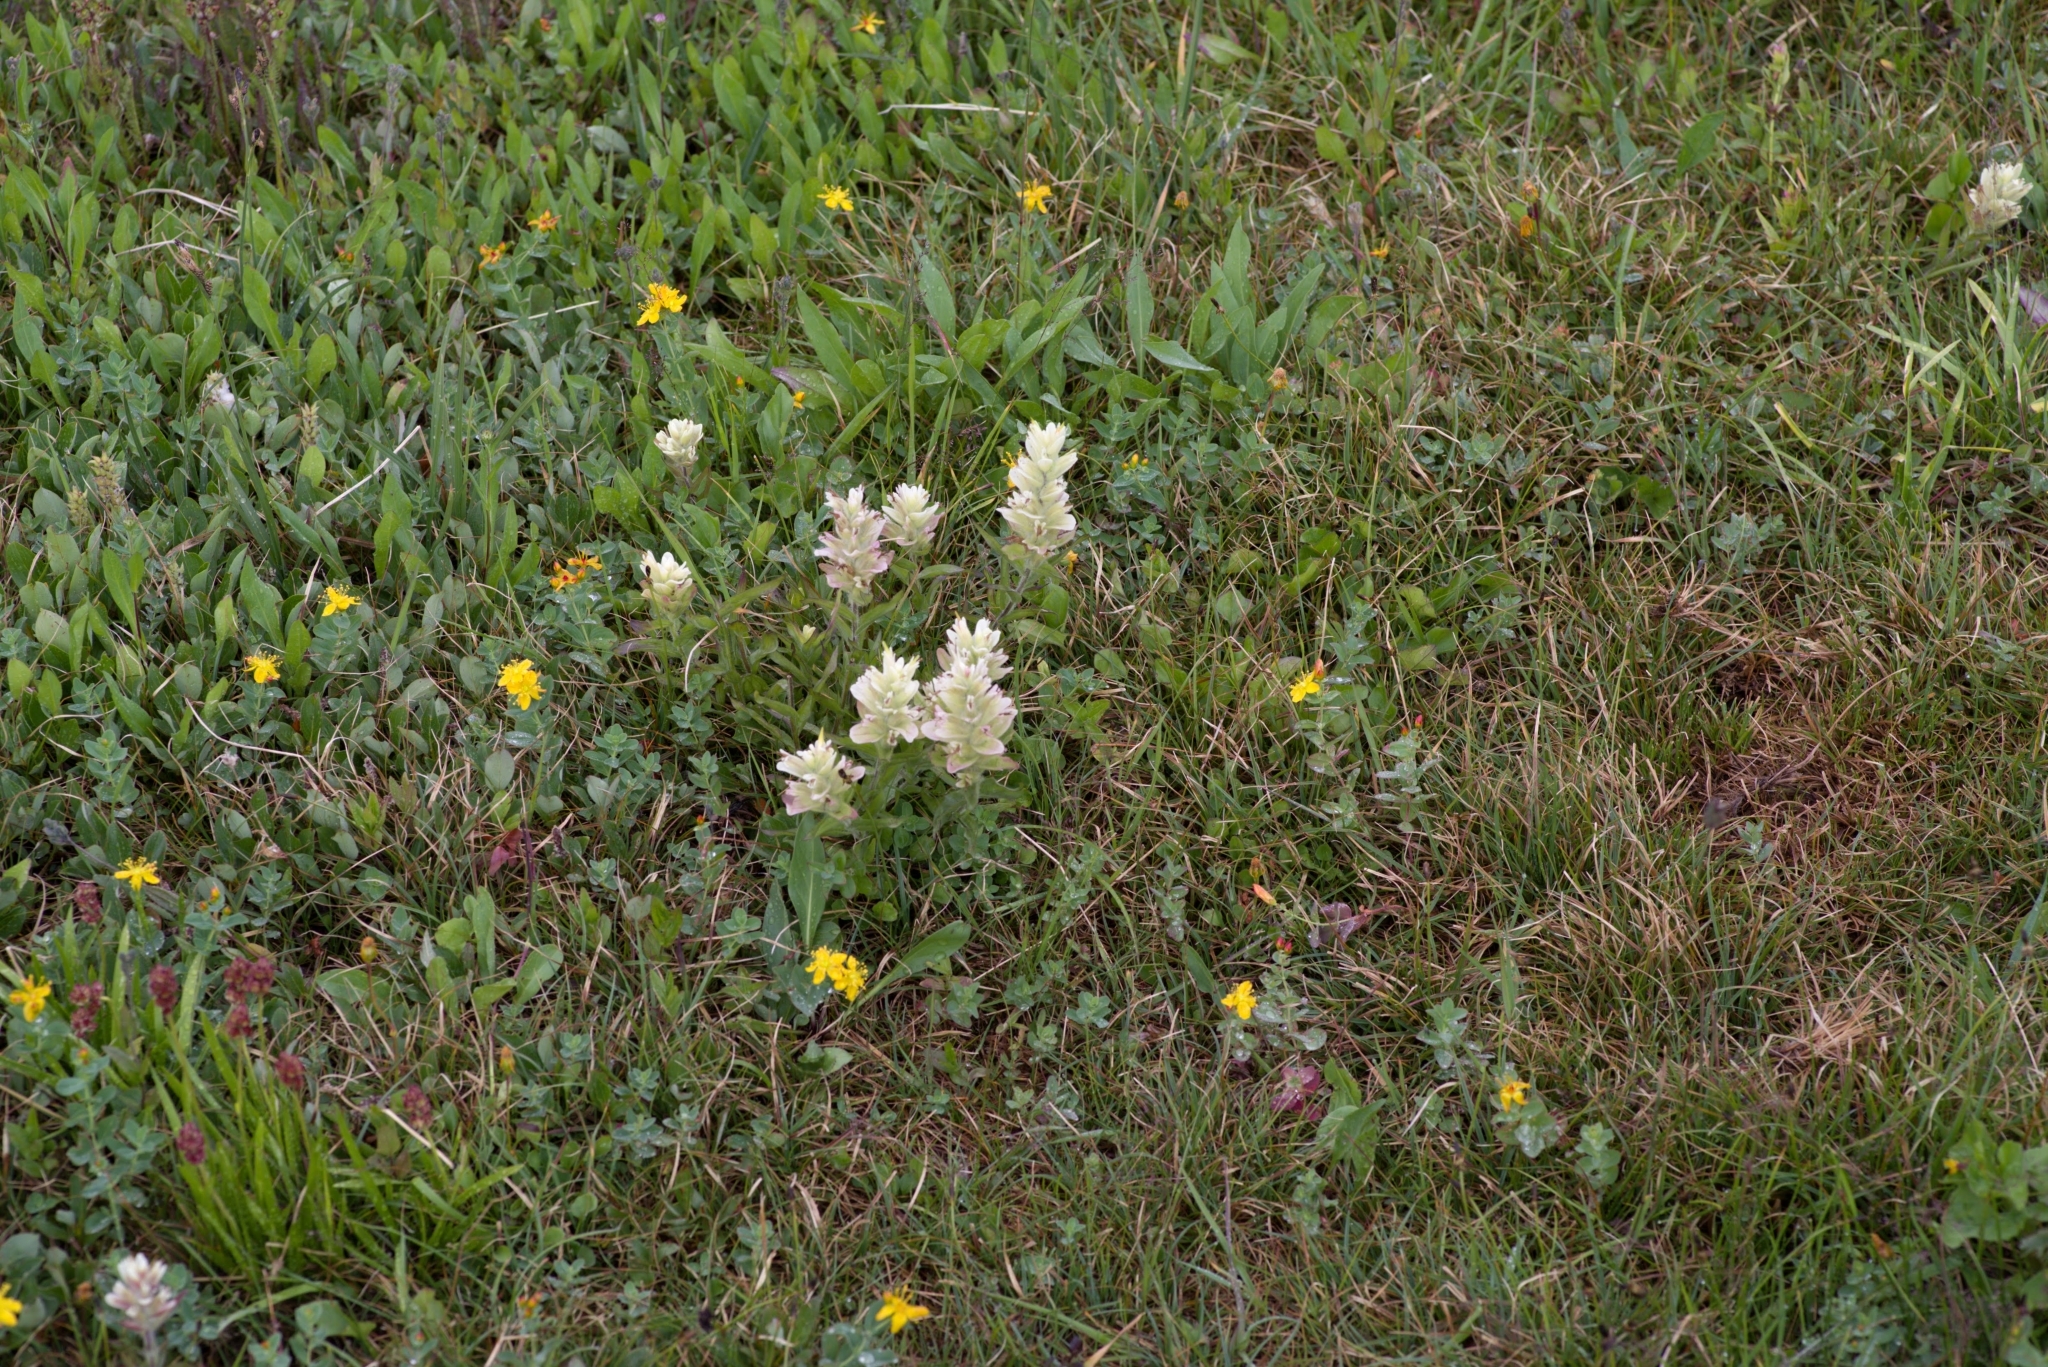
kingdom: Plantae
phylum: Tracheophyta
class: Magnoliopsida
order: Lamiales
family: Orobanchaceae
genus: Castilleja
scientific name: Castilleja occidentalis
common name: Western paintbrush
